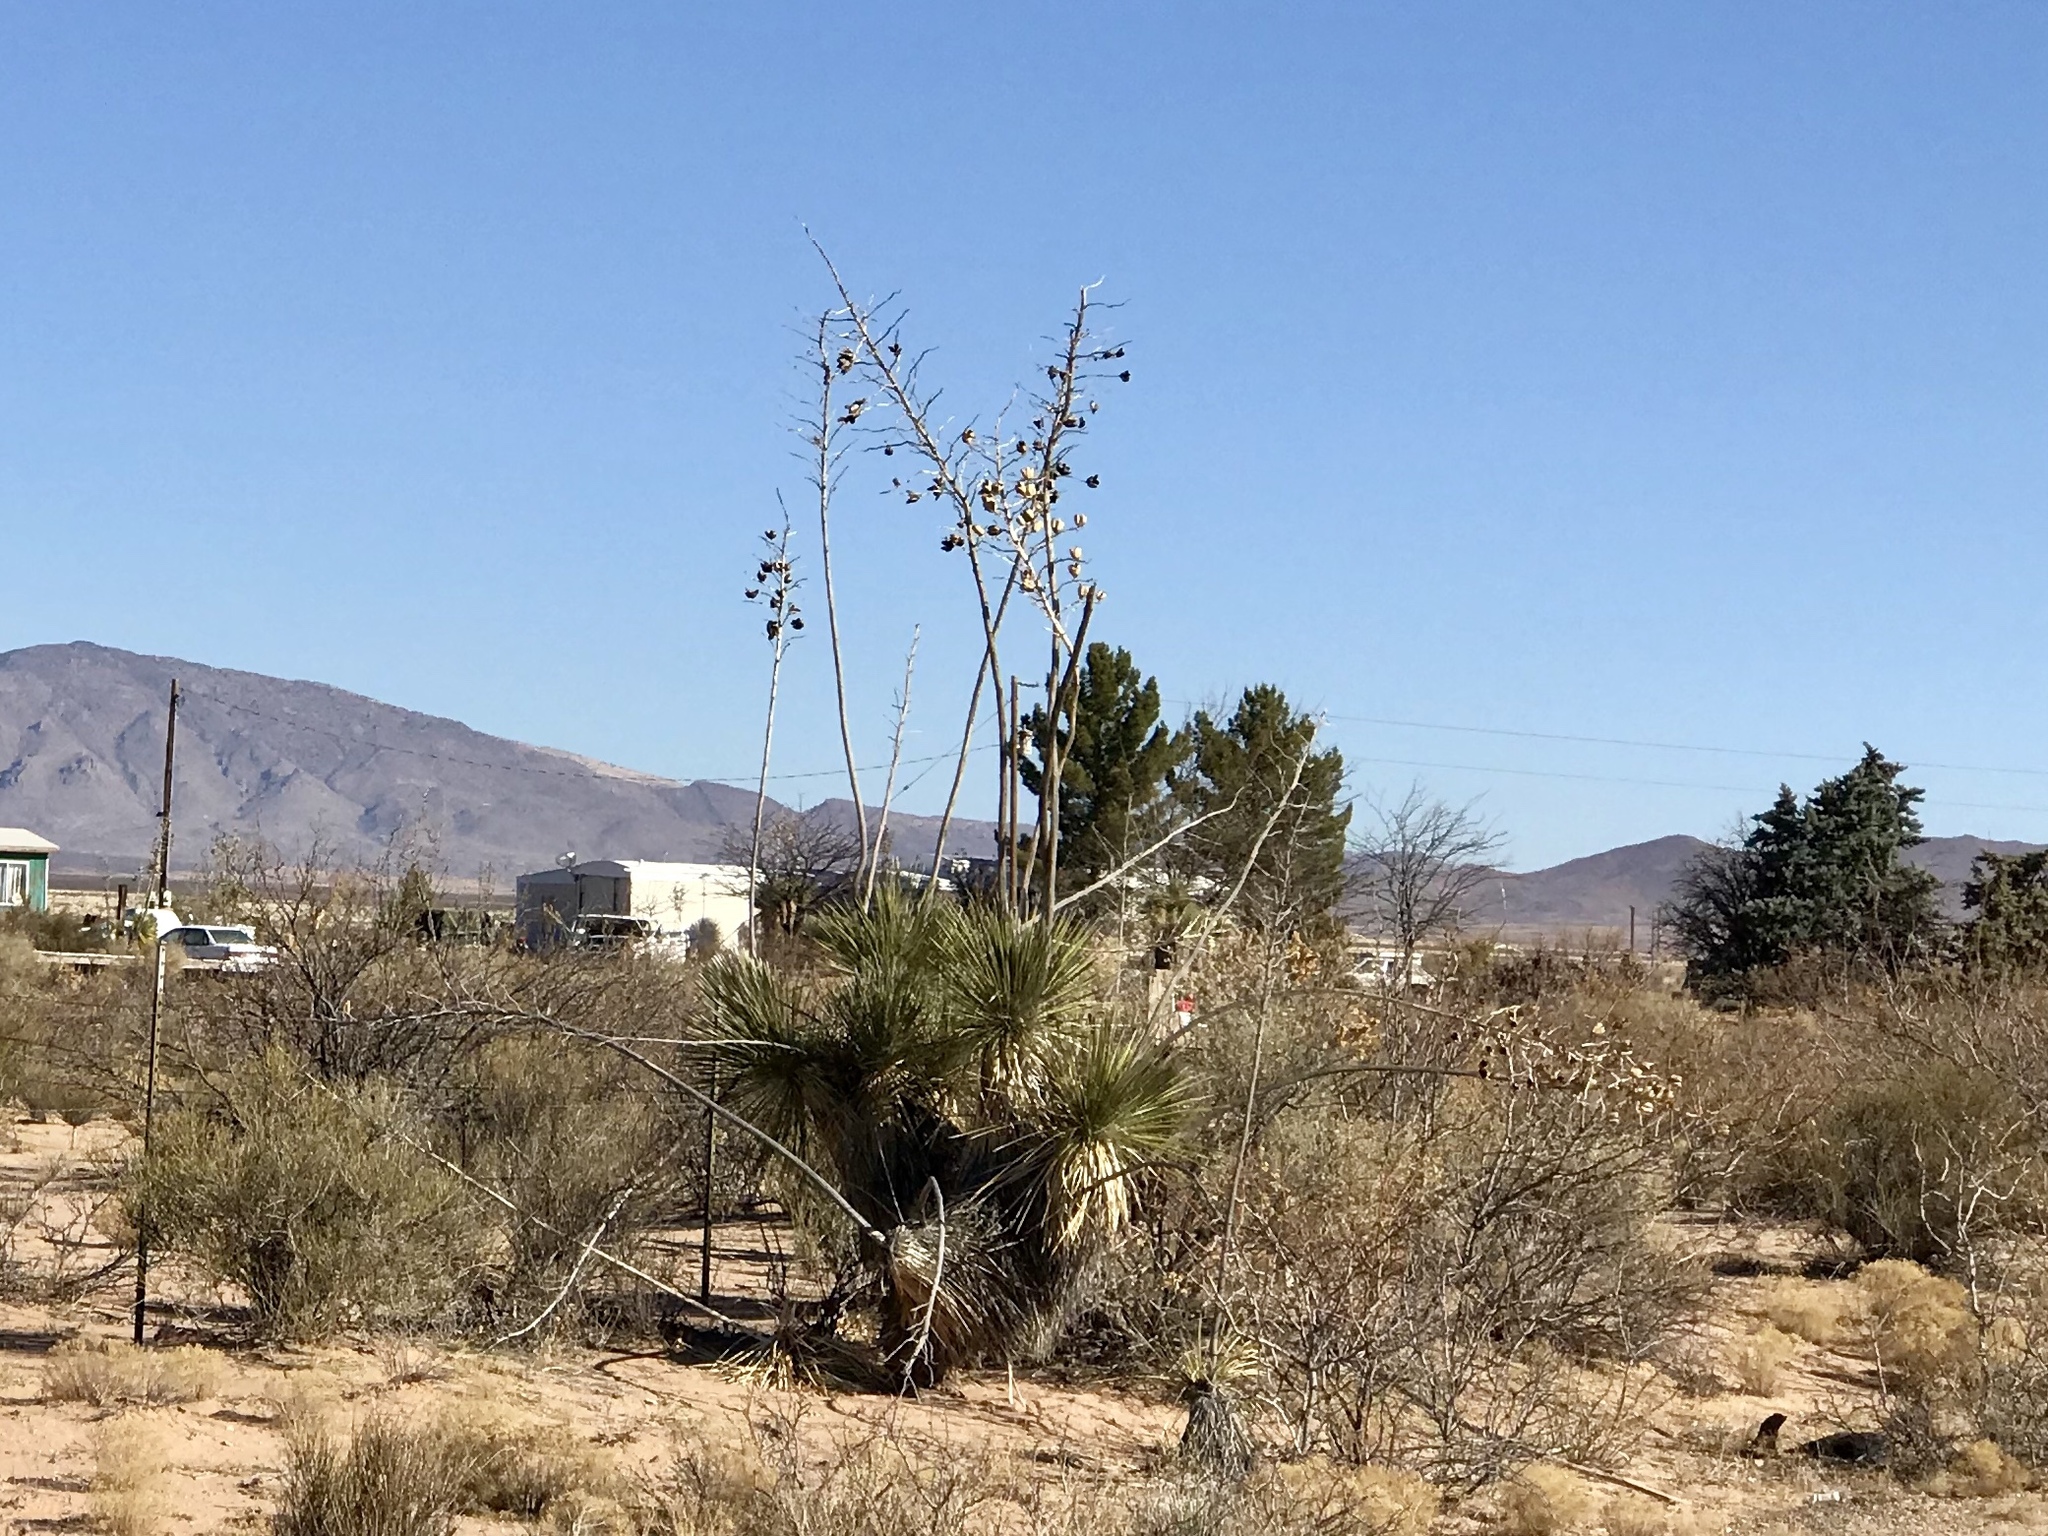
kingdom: Plantae
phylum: Tracheophyta
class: Liliopsida
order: Asparagales
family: Asparagaceae
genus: Yucca
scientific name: Yucca elata
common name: Palmella
